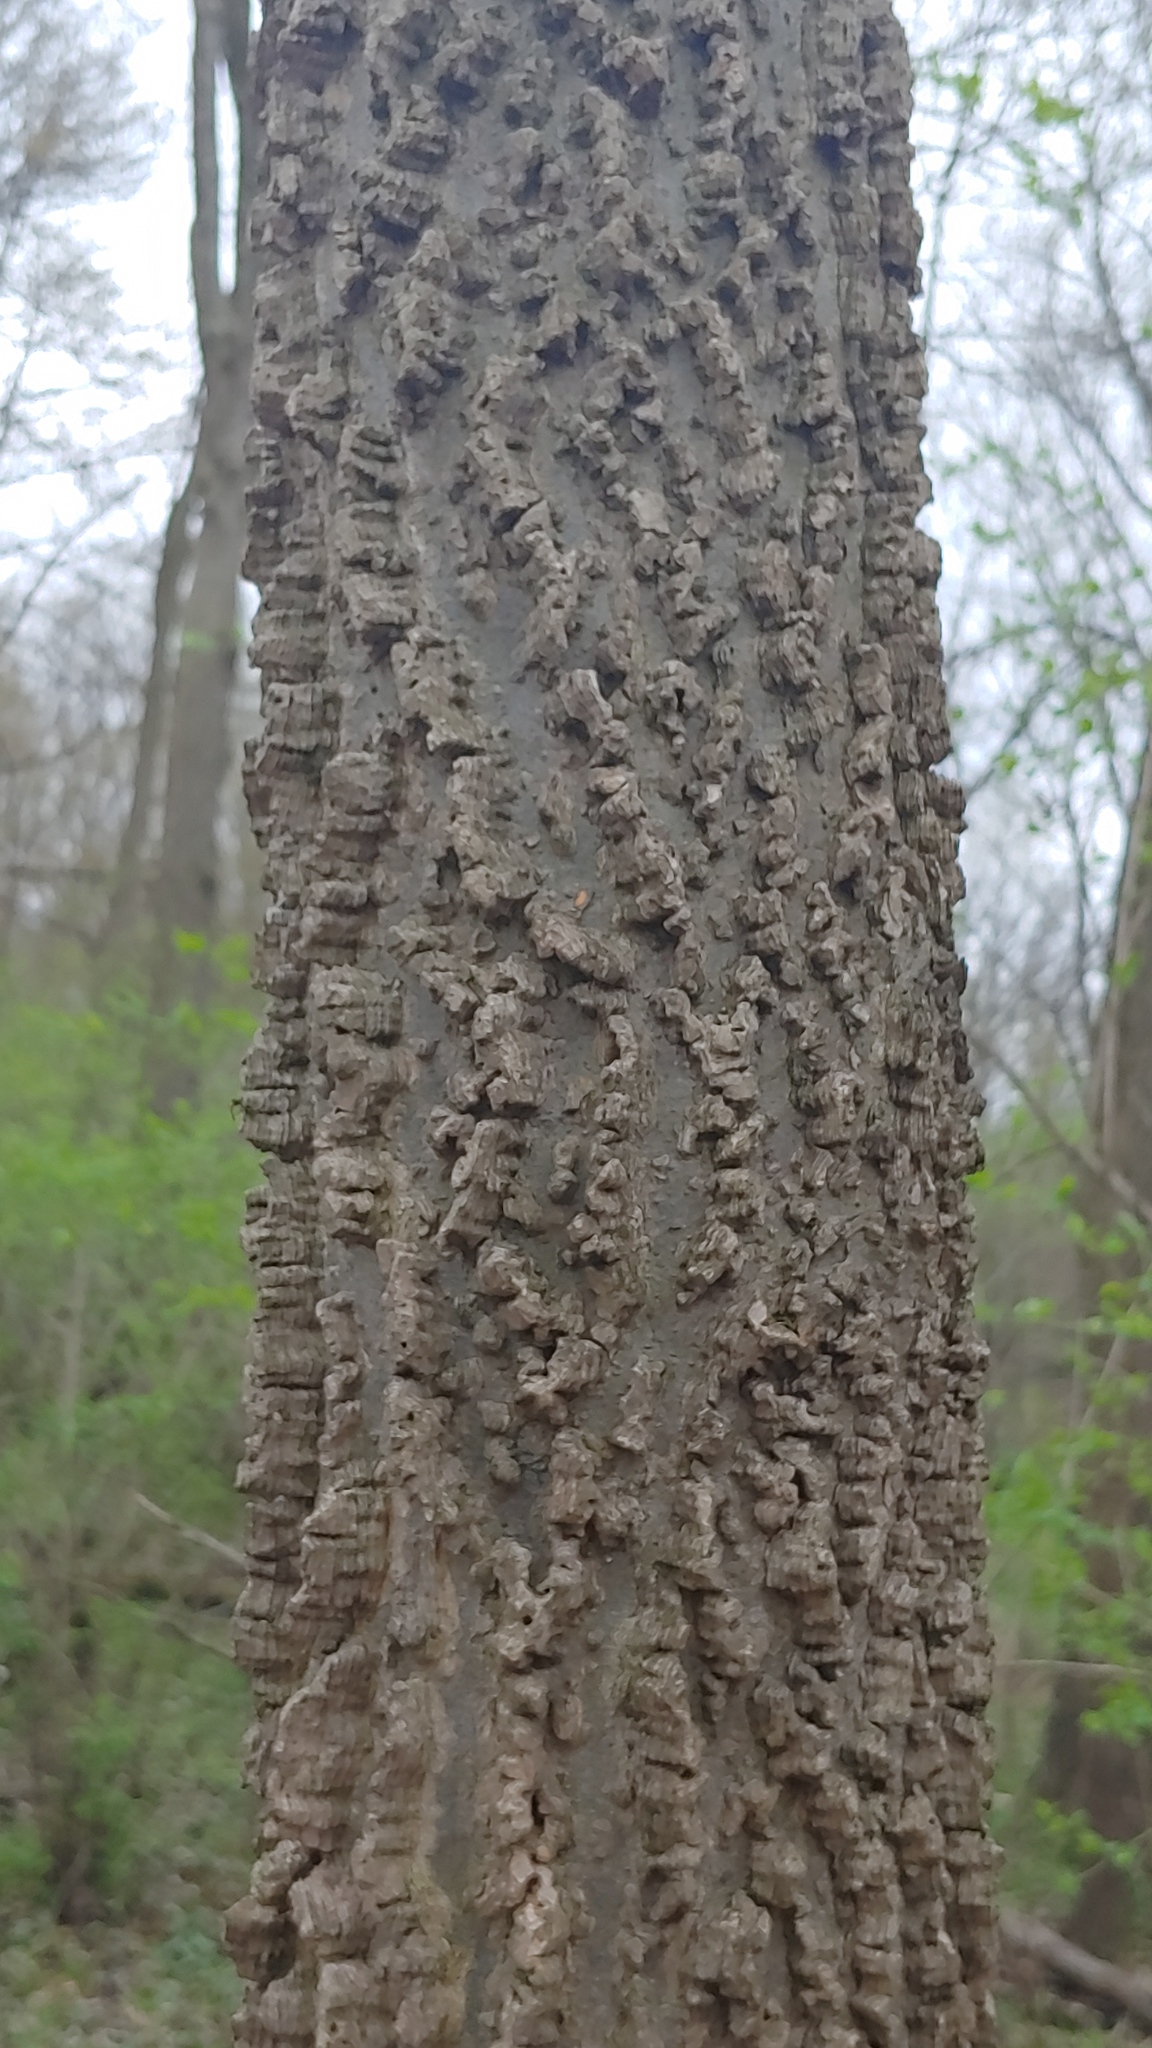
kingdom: Plantae
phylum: Tracheophyta
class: Magnoliopsida
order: Rosales
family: Cannabaceae
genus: Celtis
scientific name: Celtis occidentalis
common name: Common hackberry
